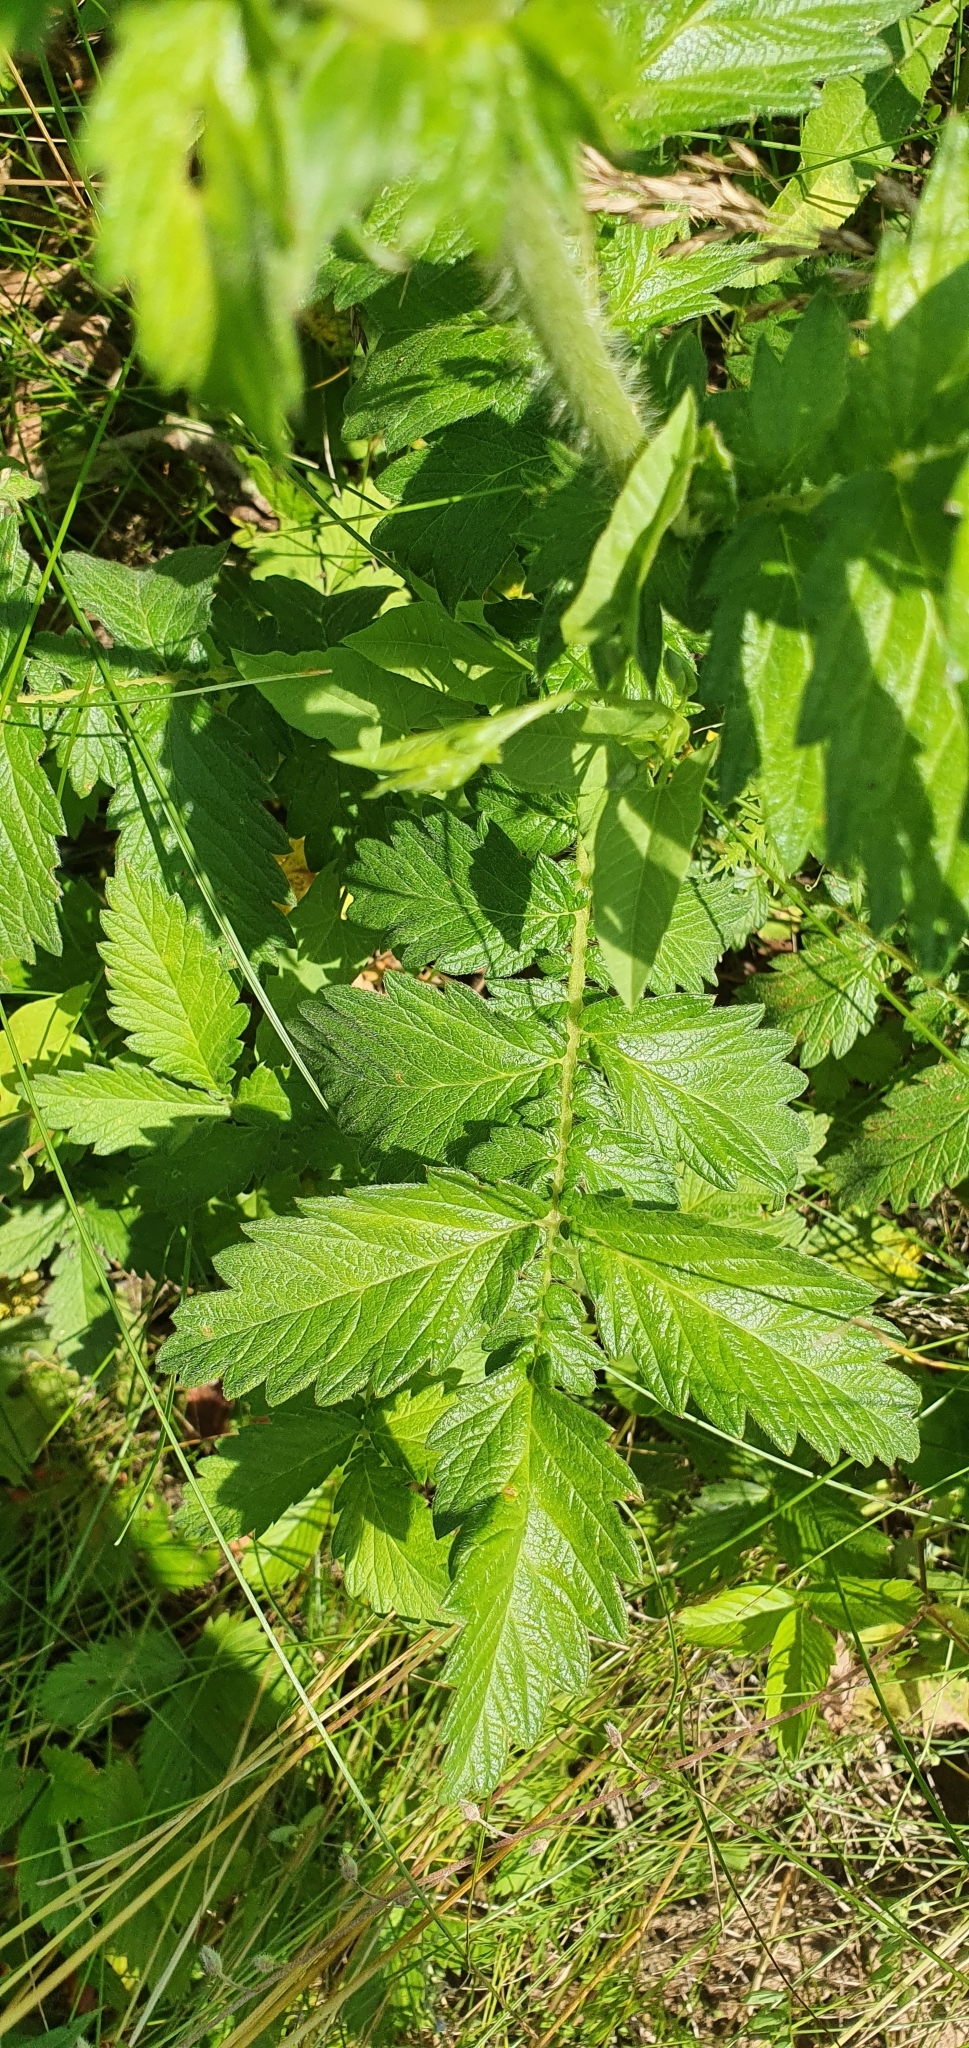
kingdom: Plantae
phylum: Tracheophyta
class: Magnoliopsida
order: Rosales
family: Rosaceae
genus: Agrimonia
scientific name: Agrimonia eupatoria
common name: Agrimony
